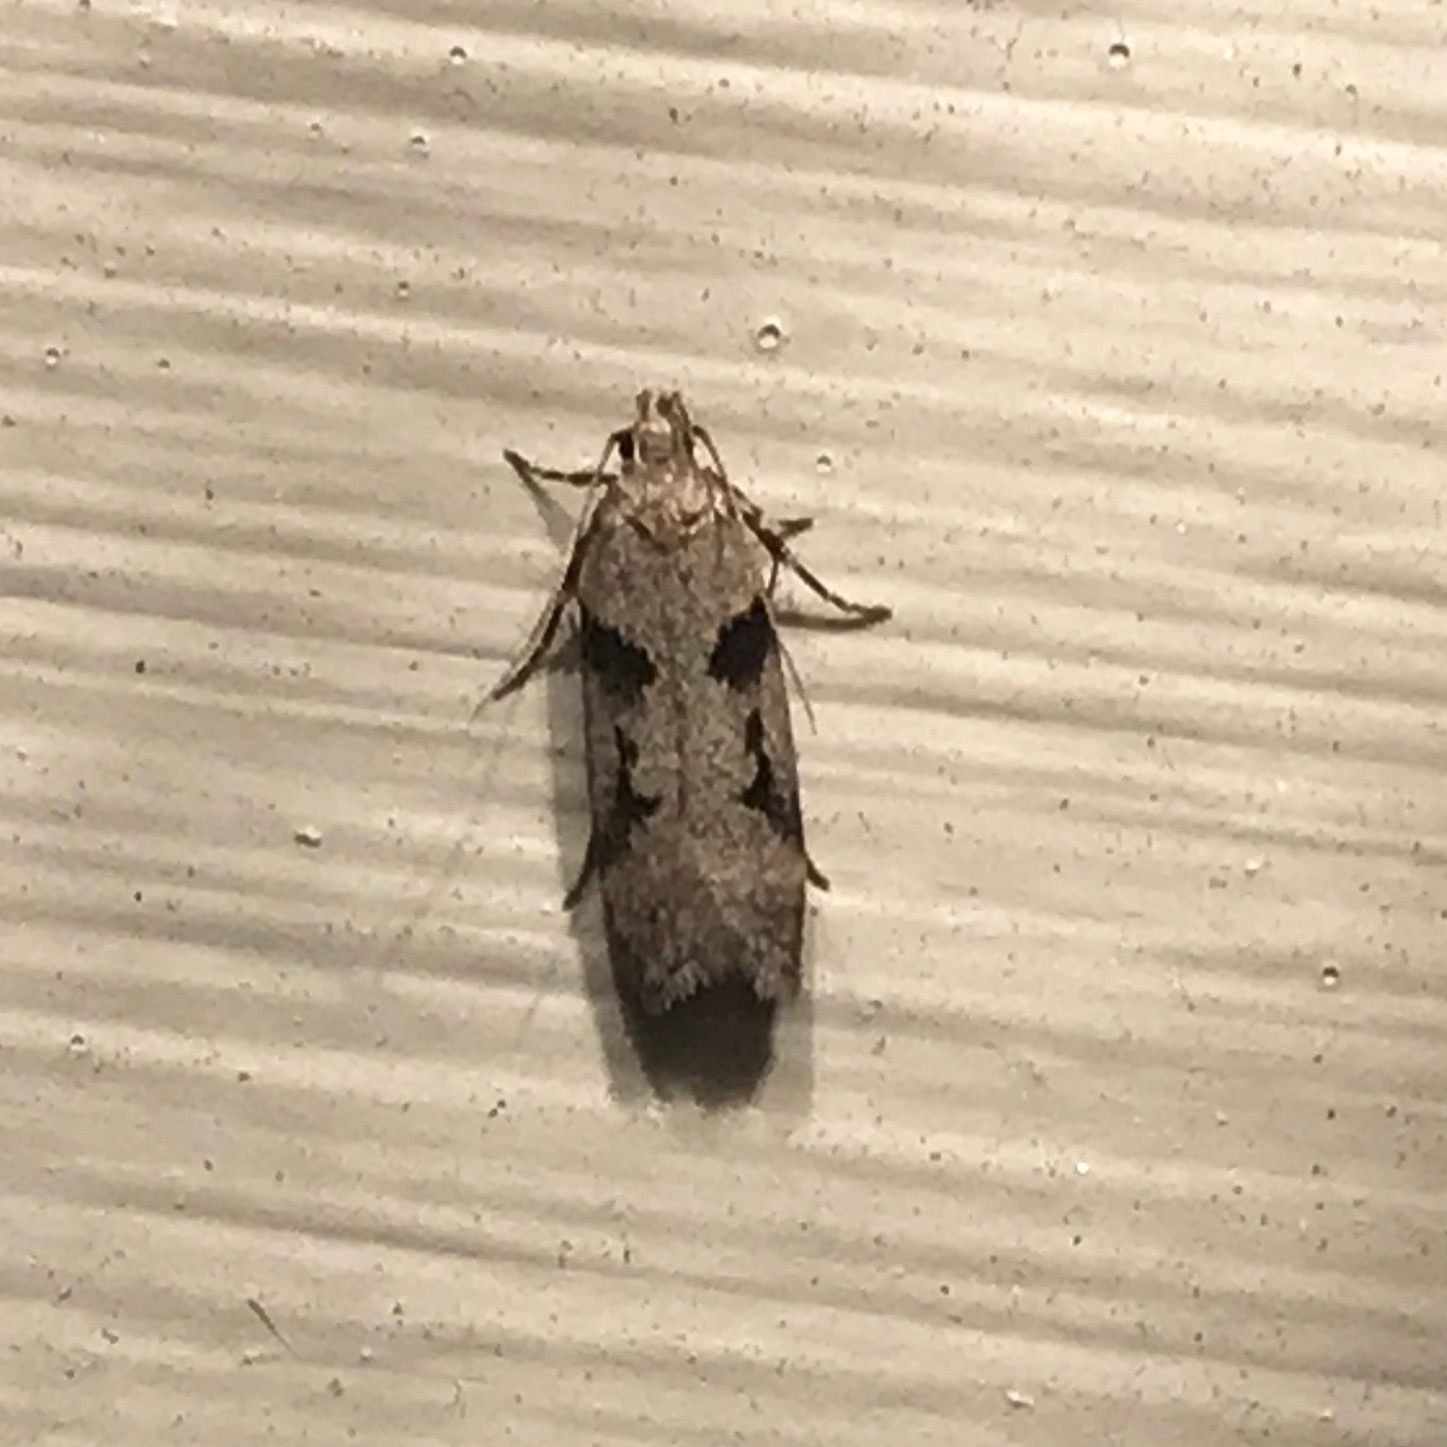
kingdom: Animalia
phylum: Arthropoda
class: Insecta
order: Lepidoptera
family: Gelechiidae
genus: Chionodes
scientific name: Chionodes fondella
